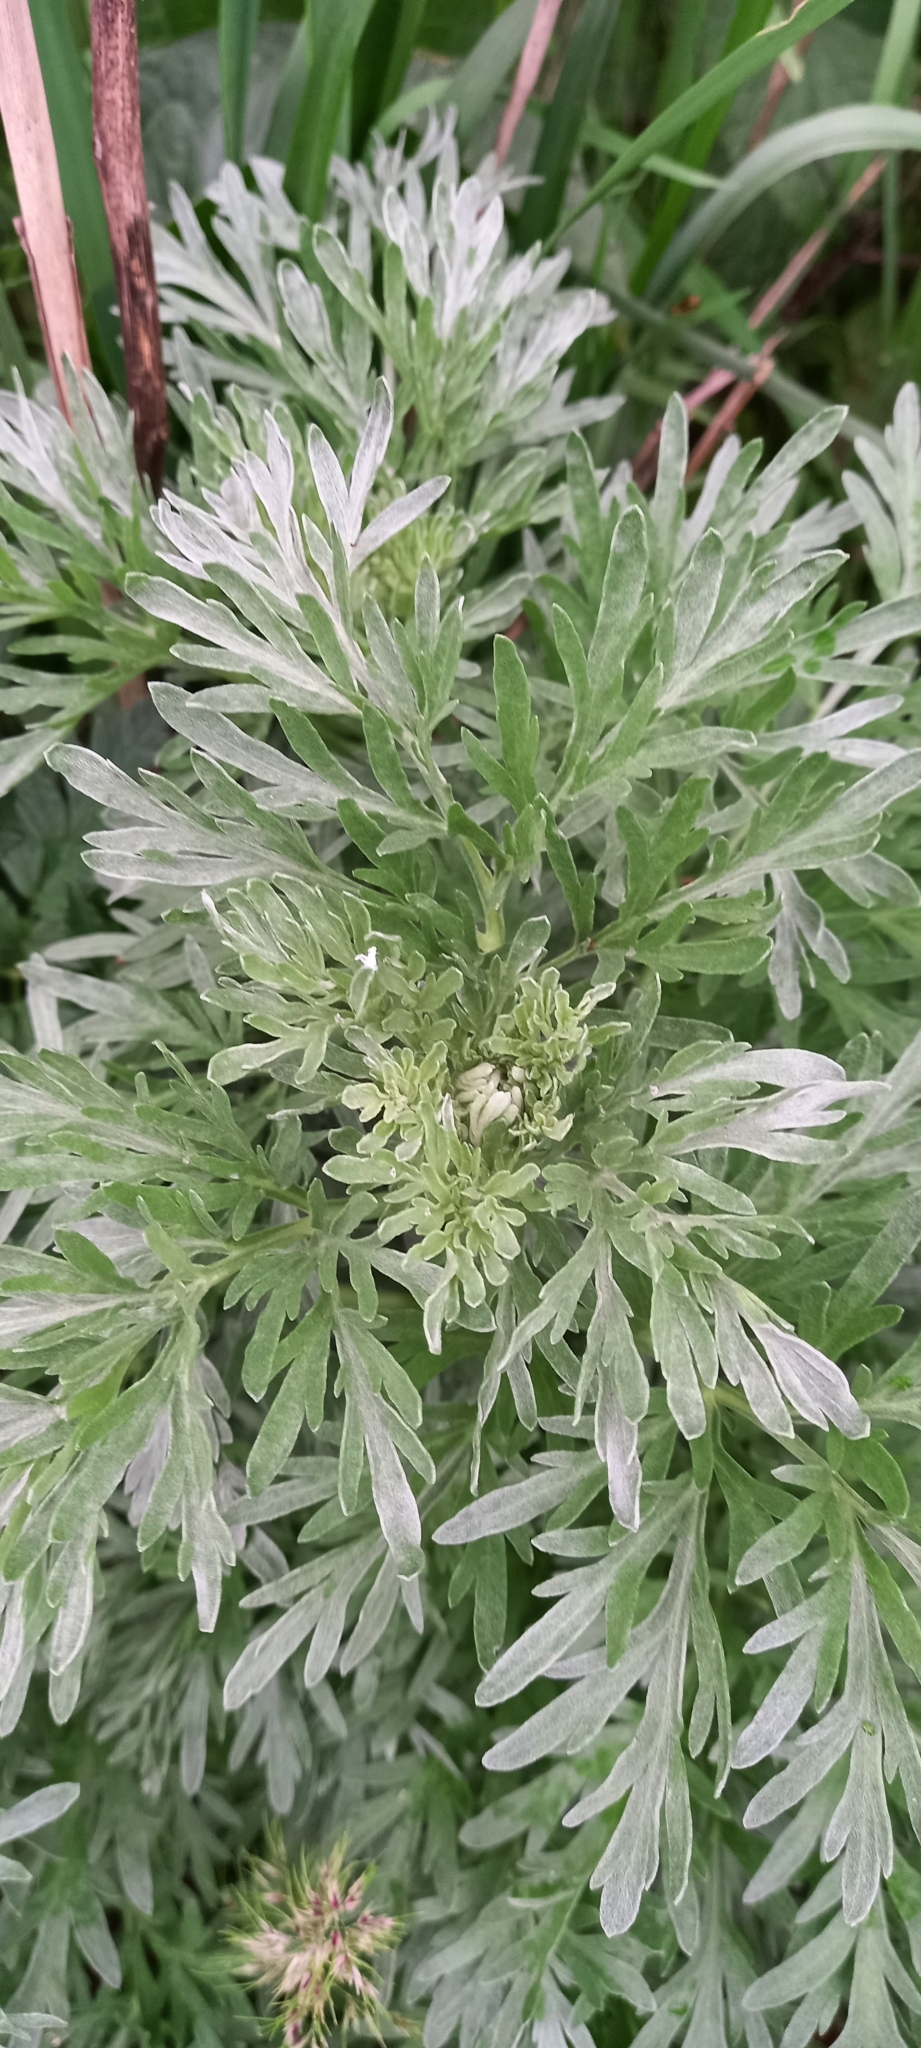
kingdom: Plantae
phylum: Tracheophyta
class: Magnoliopsida
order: Asterales
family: Asteraceae
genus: Artemisia
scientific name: Artemisia absinthium
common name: Wormwood
